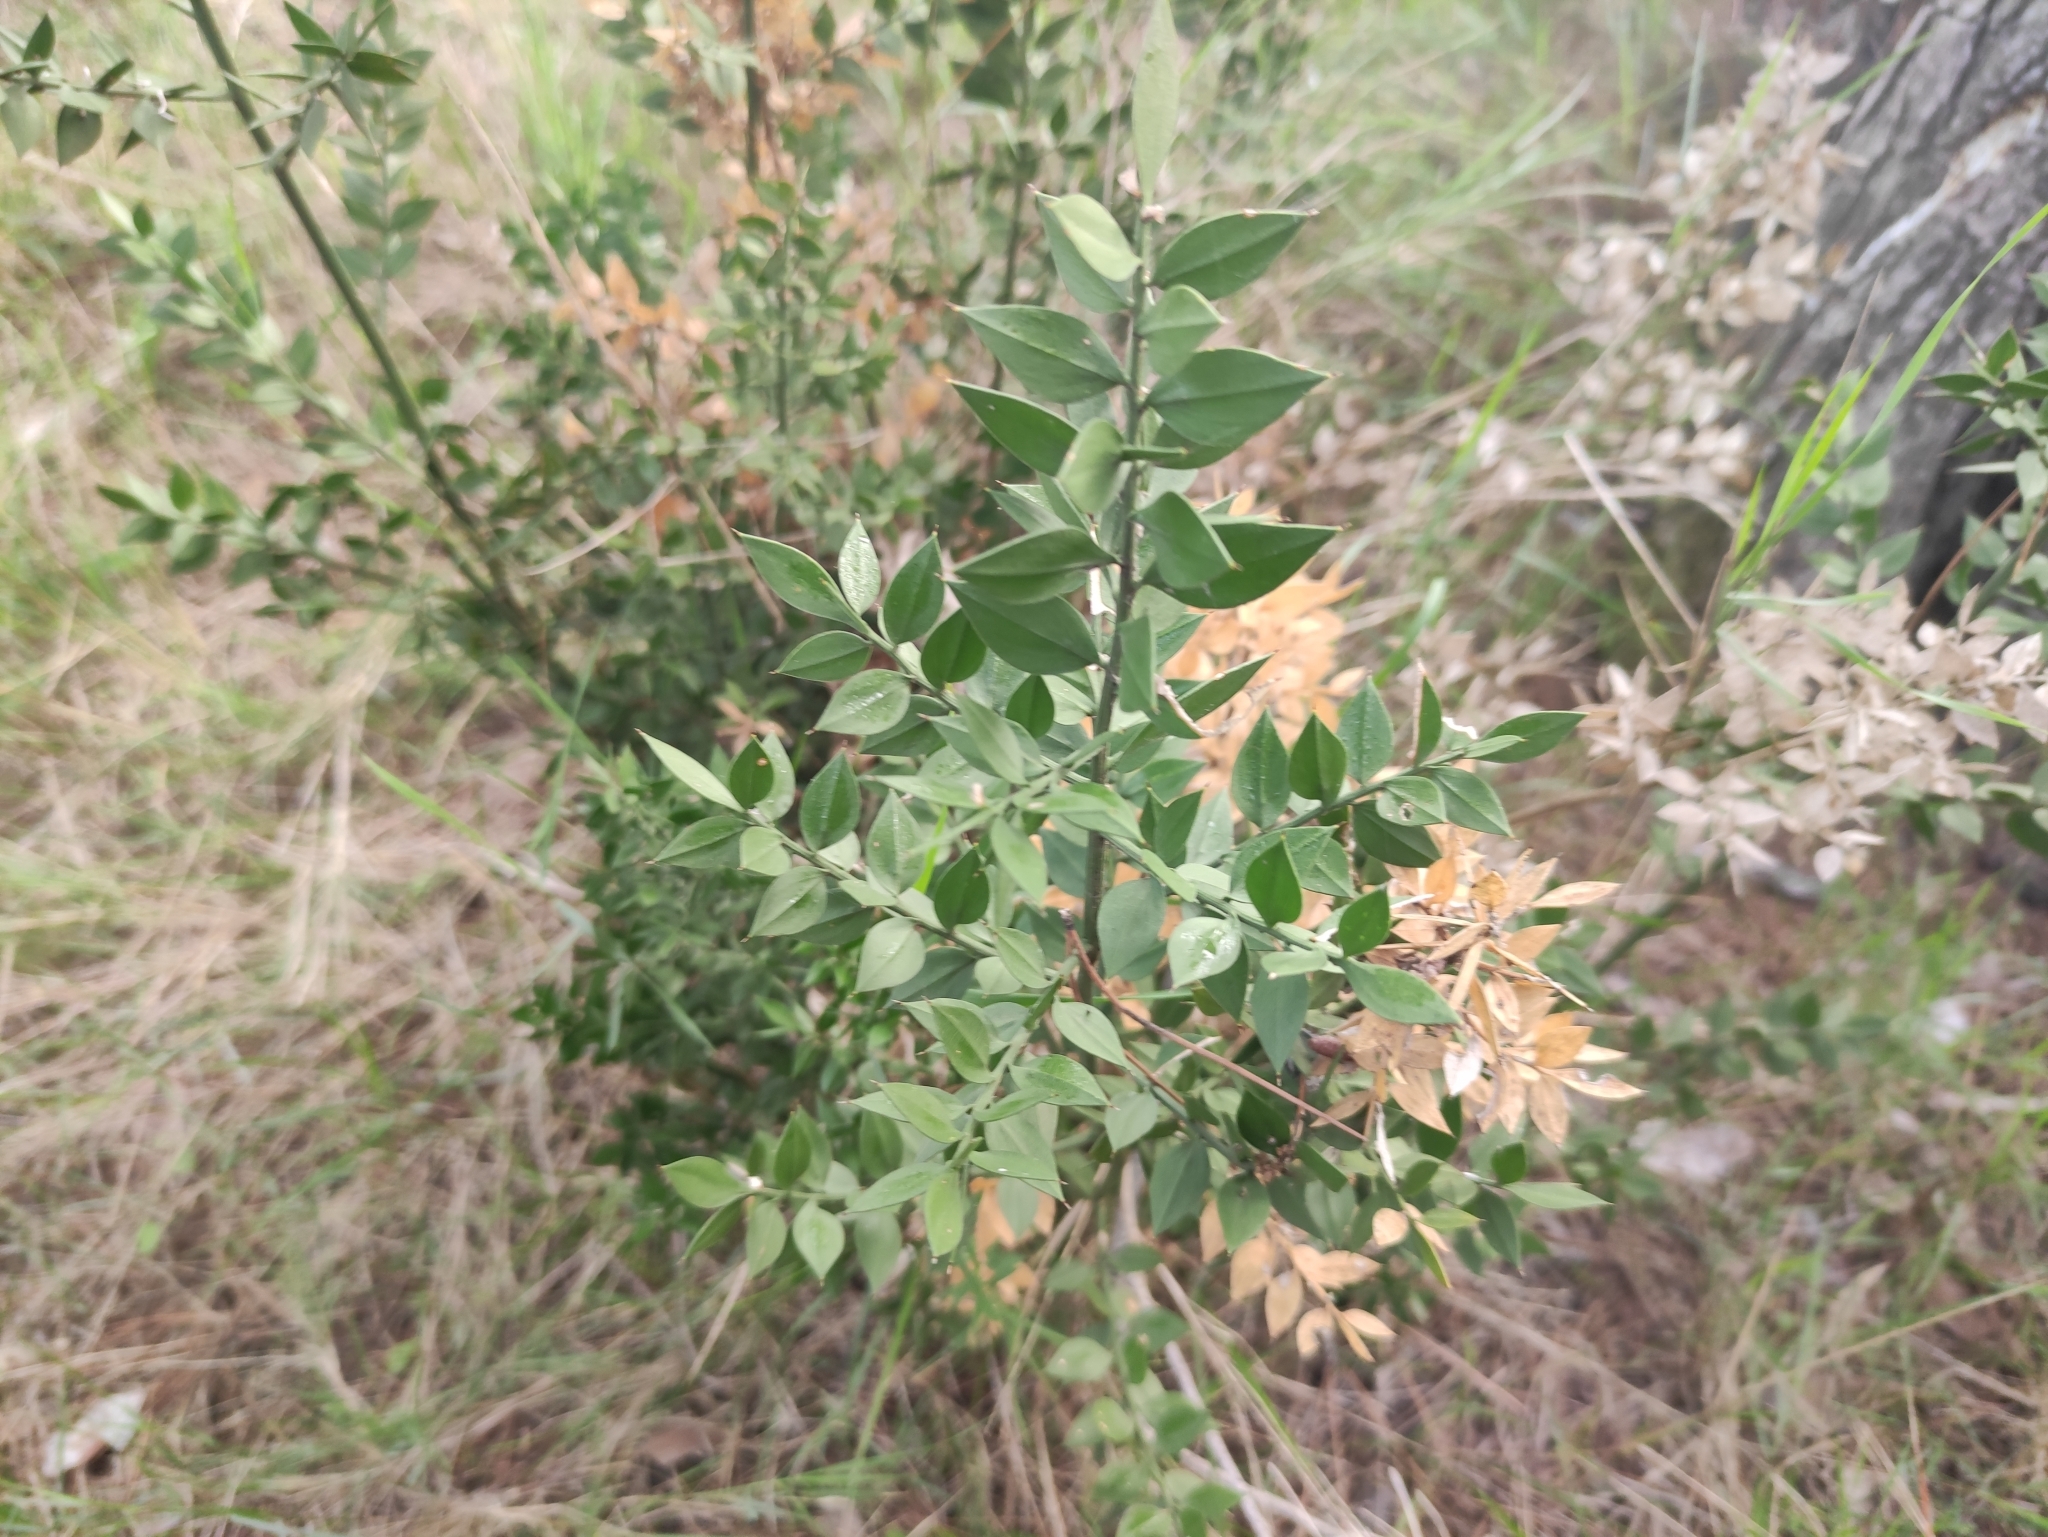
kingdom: Plantae
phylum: Tracheophyta
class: Liliopsida
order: Asparagales
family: Asparagaceae
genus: Ruscus
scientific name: Ruscus aculeatus
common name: Butcher's-broom
